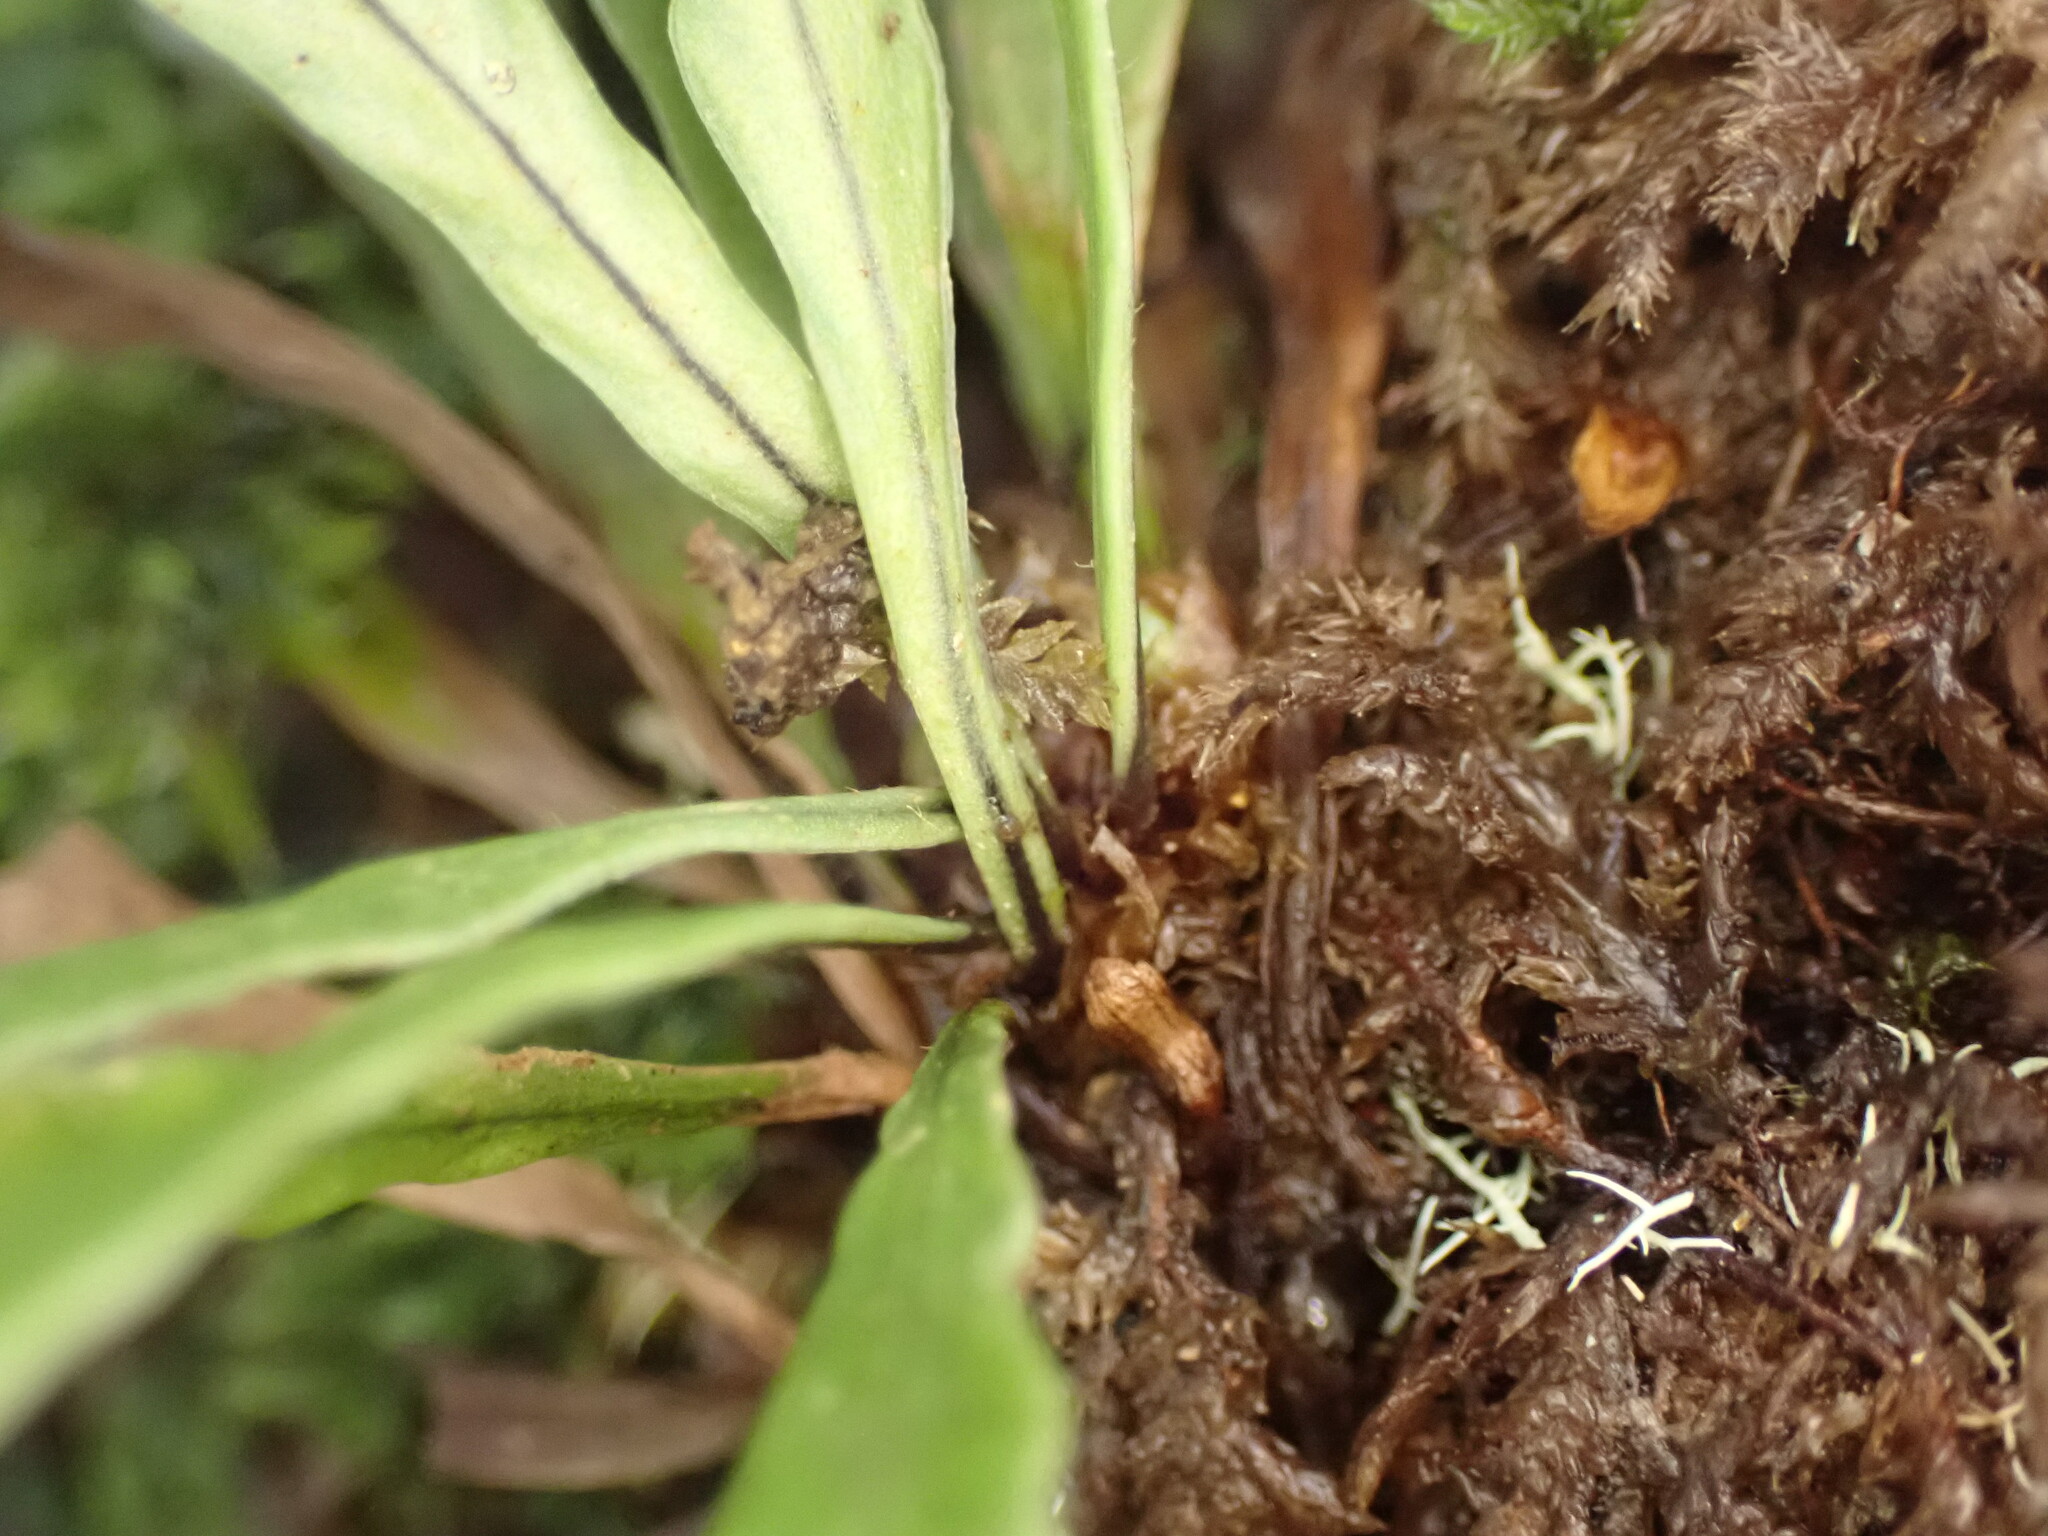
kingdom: Plantae
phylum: Tracheophyta
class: Polypodiopsida
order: Polypodiales
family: Polypodiaceae
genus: Notogrammitis
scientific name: Notogrammitis billardierei
